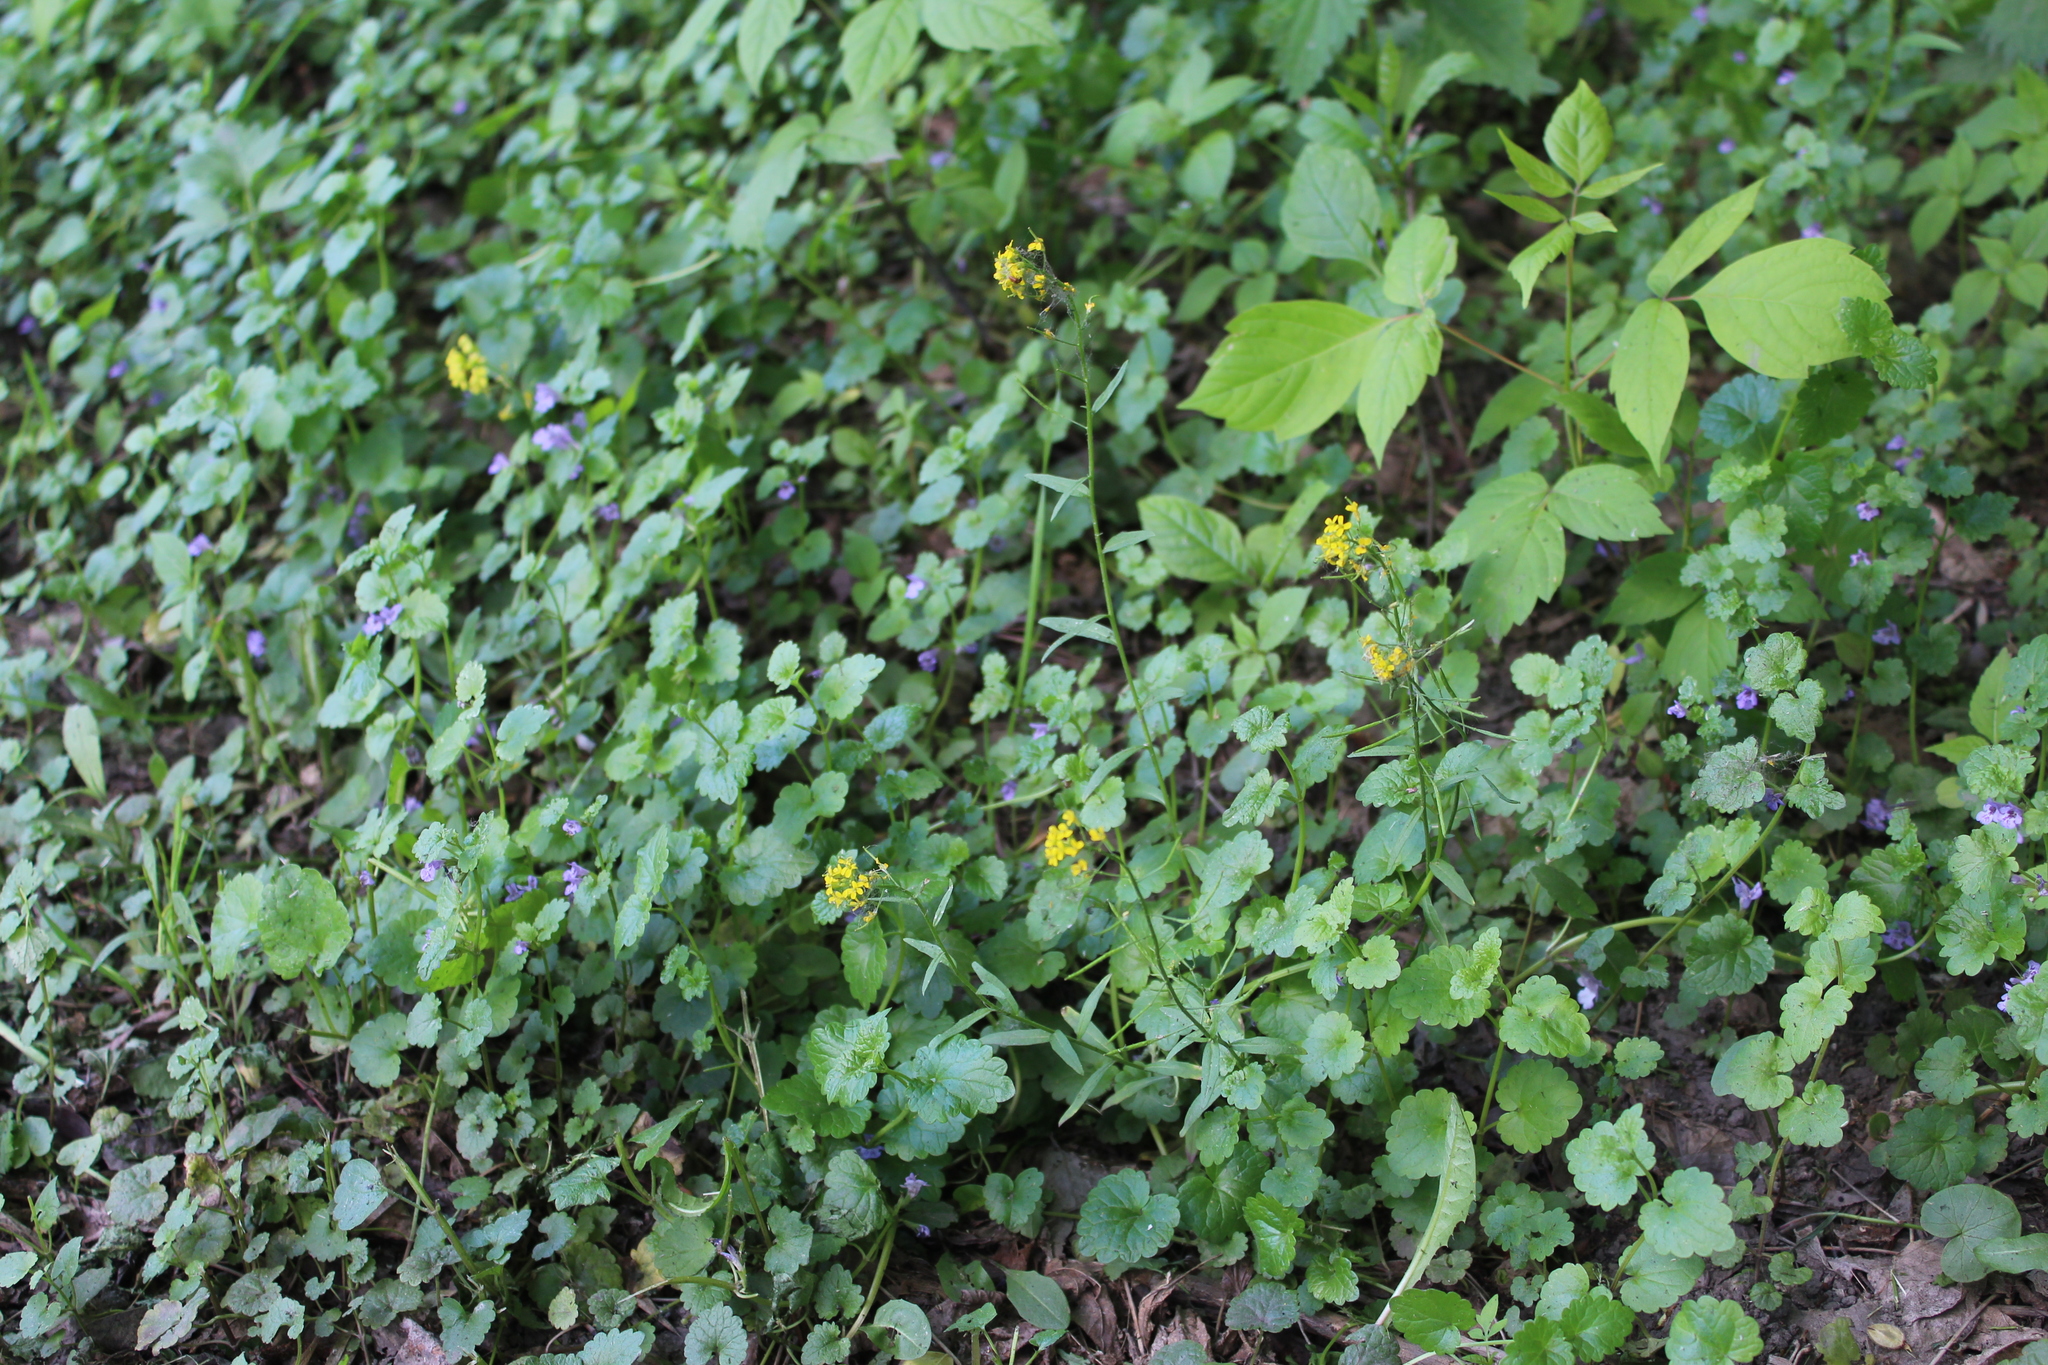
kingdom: Plantae
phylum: Tracheophyta
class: Magnoliopsida
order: Brassicales
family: Brassicaceae
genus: Erysimum
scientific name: Erysimum cheiranthoides
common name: Treacle mustard
